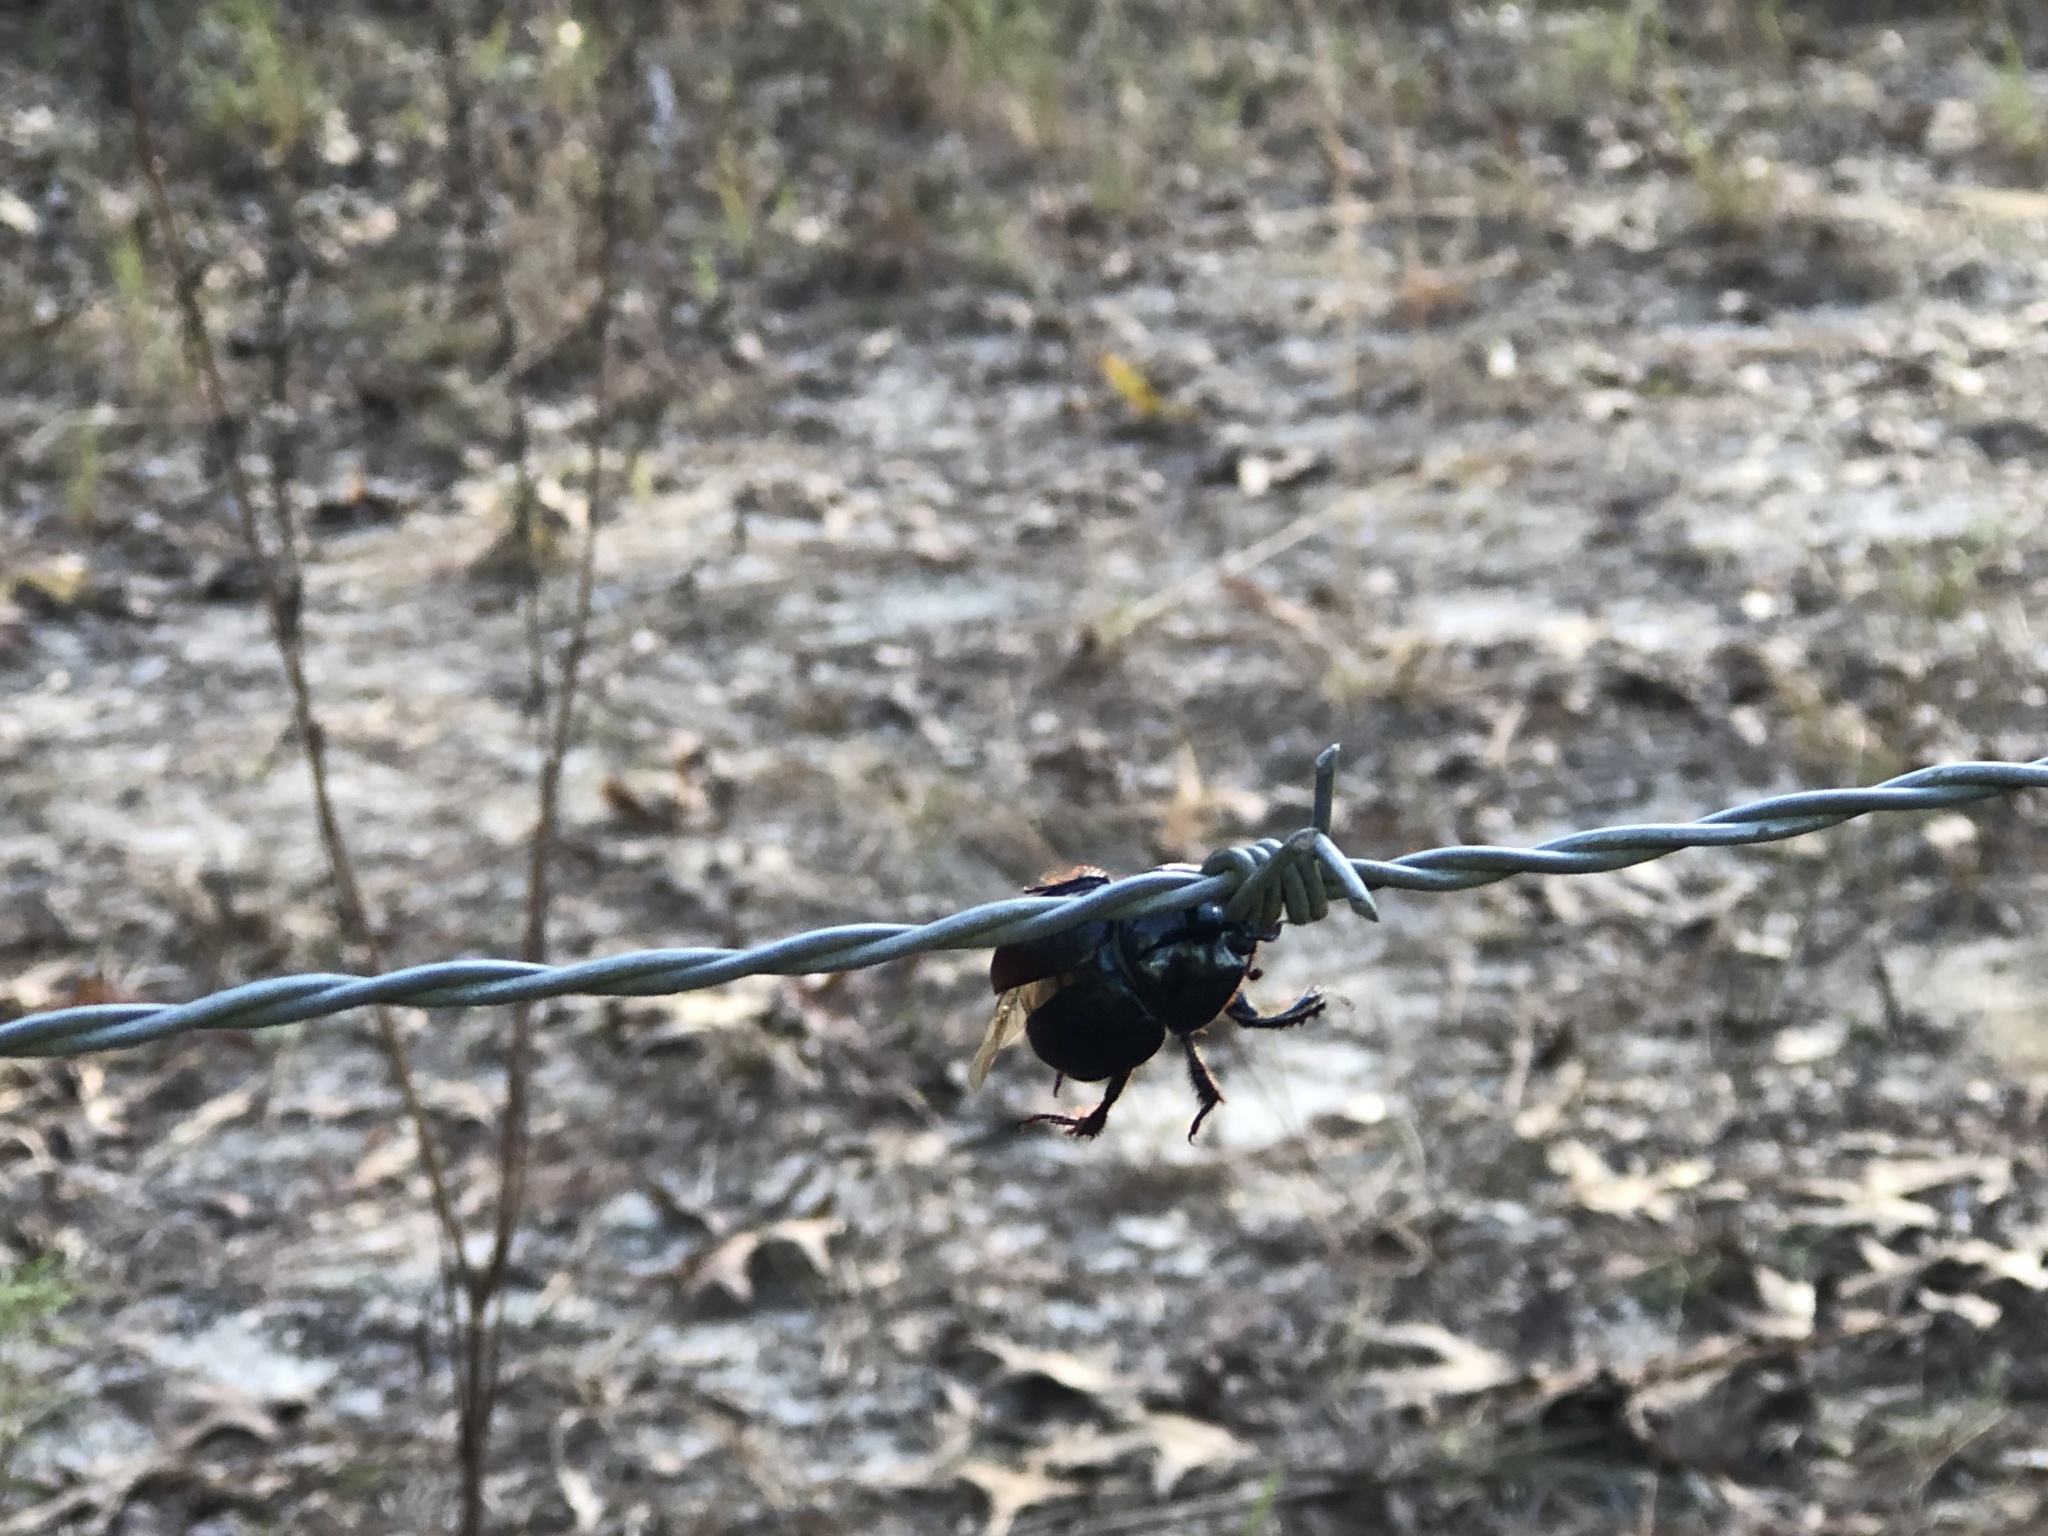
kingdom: Animalia
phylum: Arthropoda
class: Insecta
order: Coleoptera
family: Geotrupidae
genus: Peltotrupes
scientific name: Peltotrupes profundus
